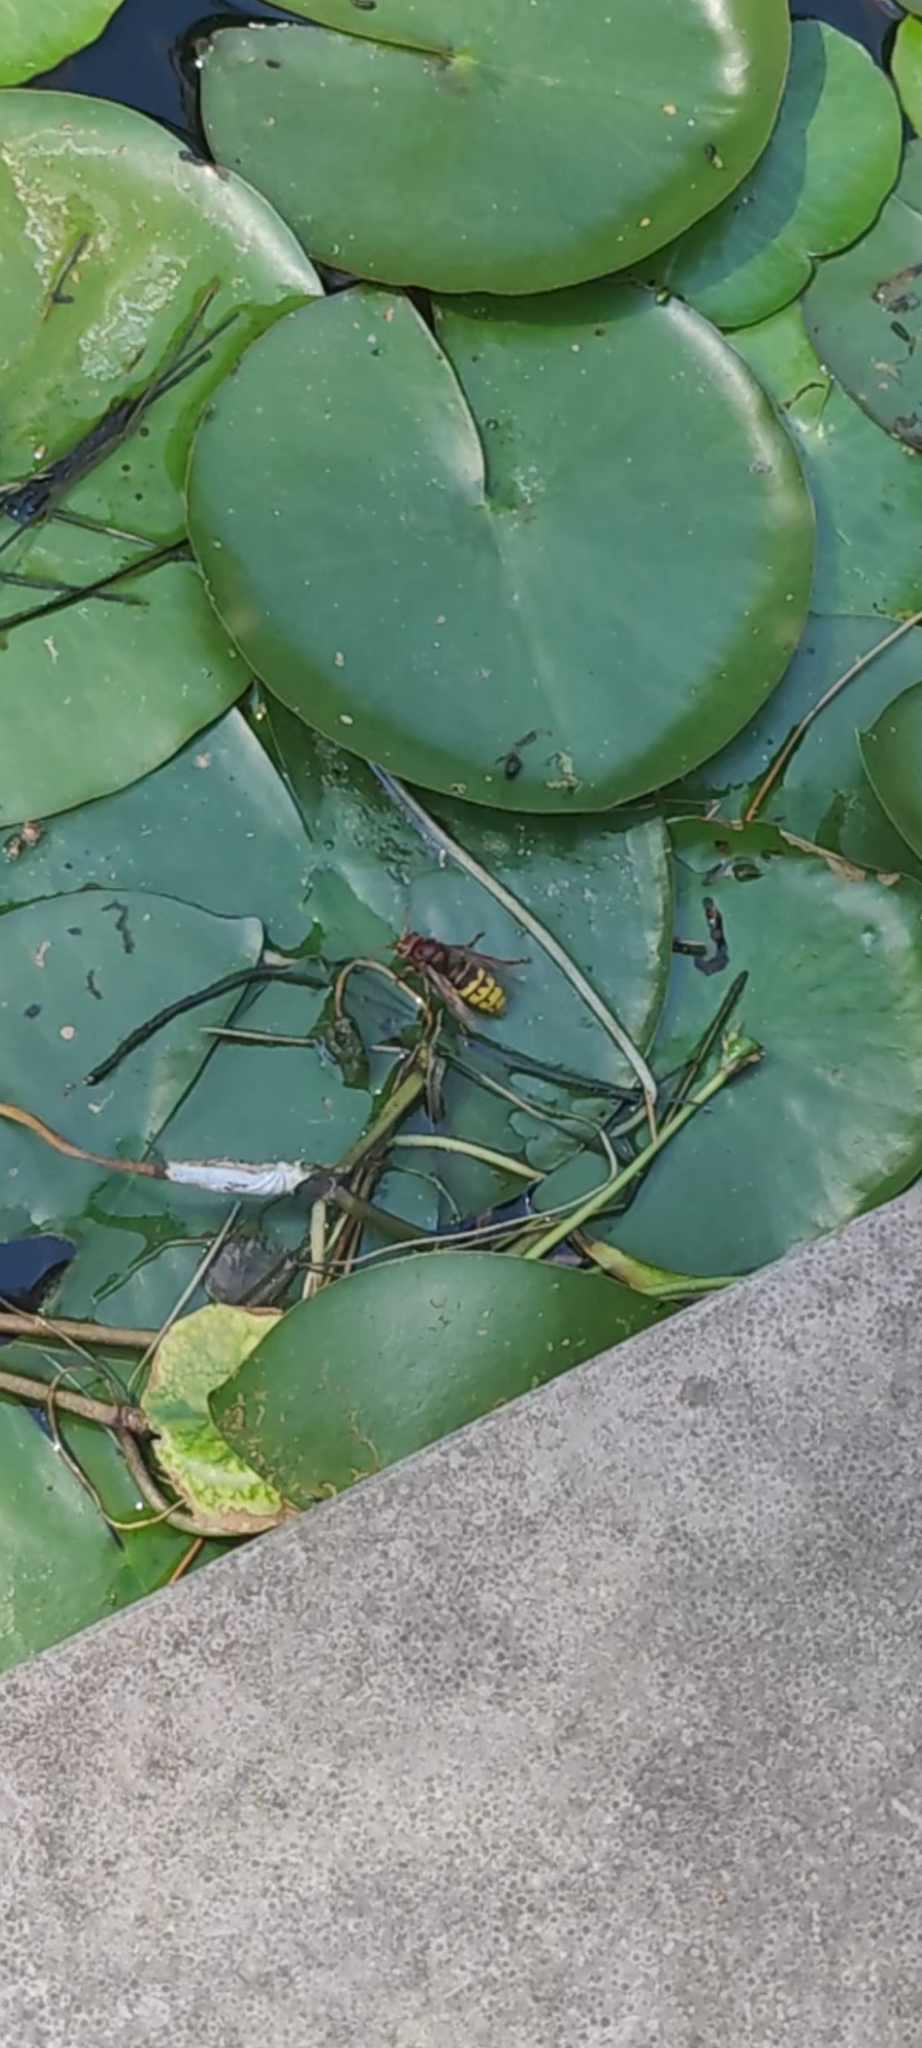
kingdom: Animalia
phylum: Arthropoda
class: Insecta
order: Hymenoptera
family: Vespidae
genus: Vespa
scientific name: Vespa crabro
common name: Hornet
